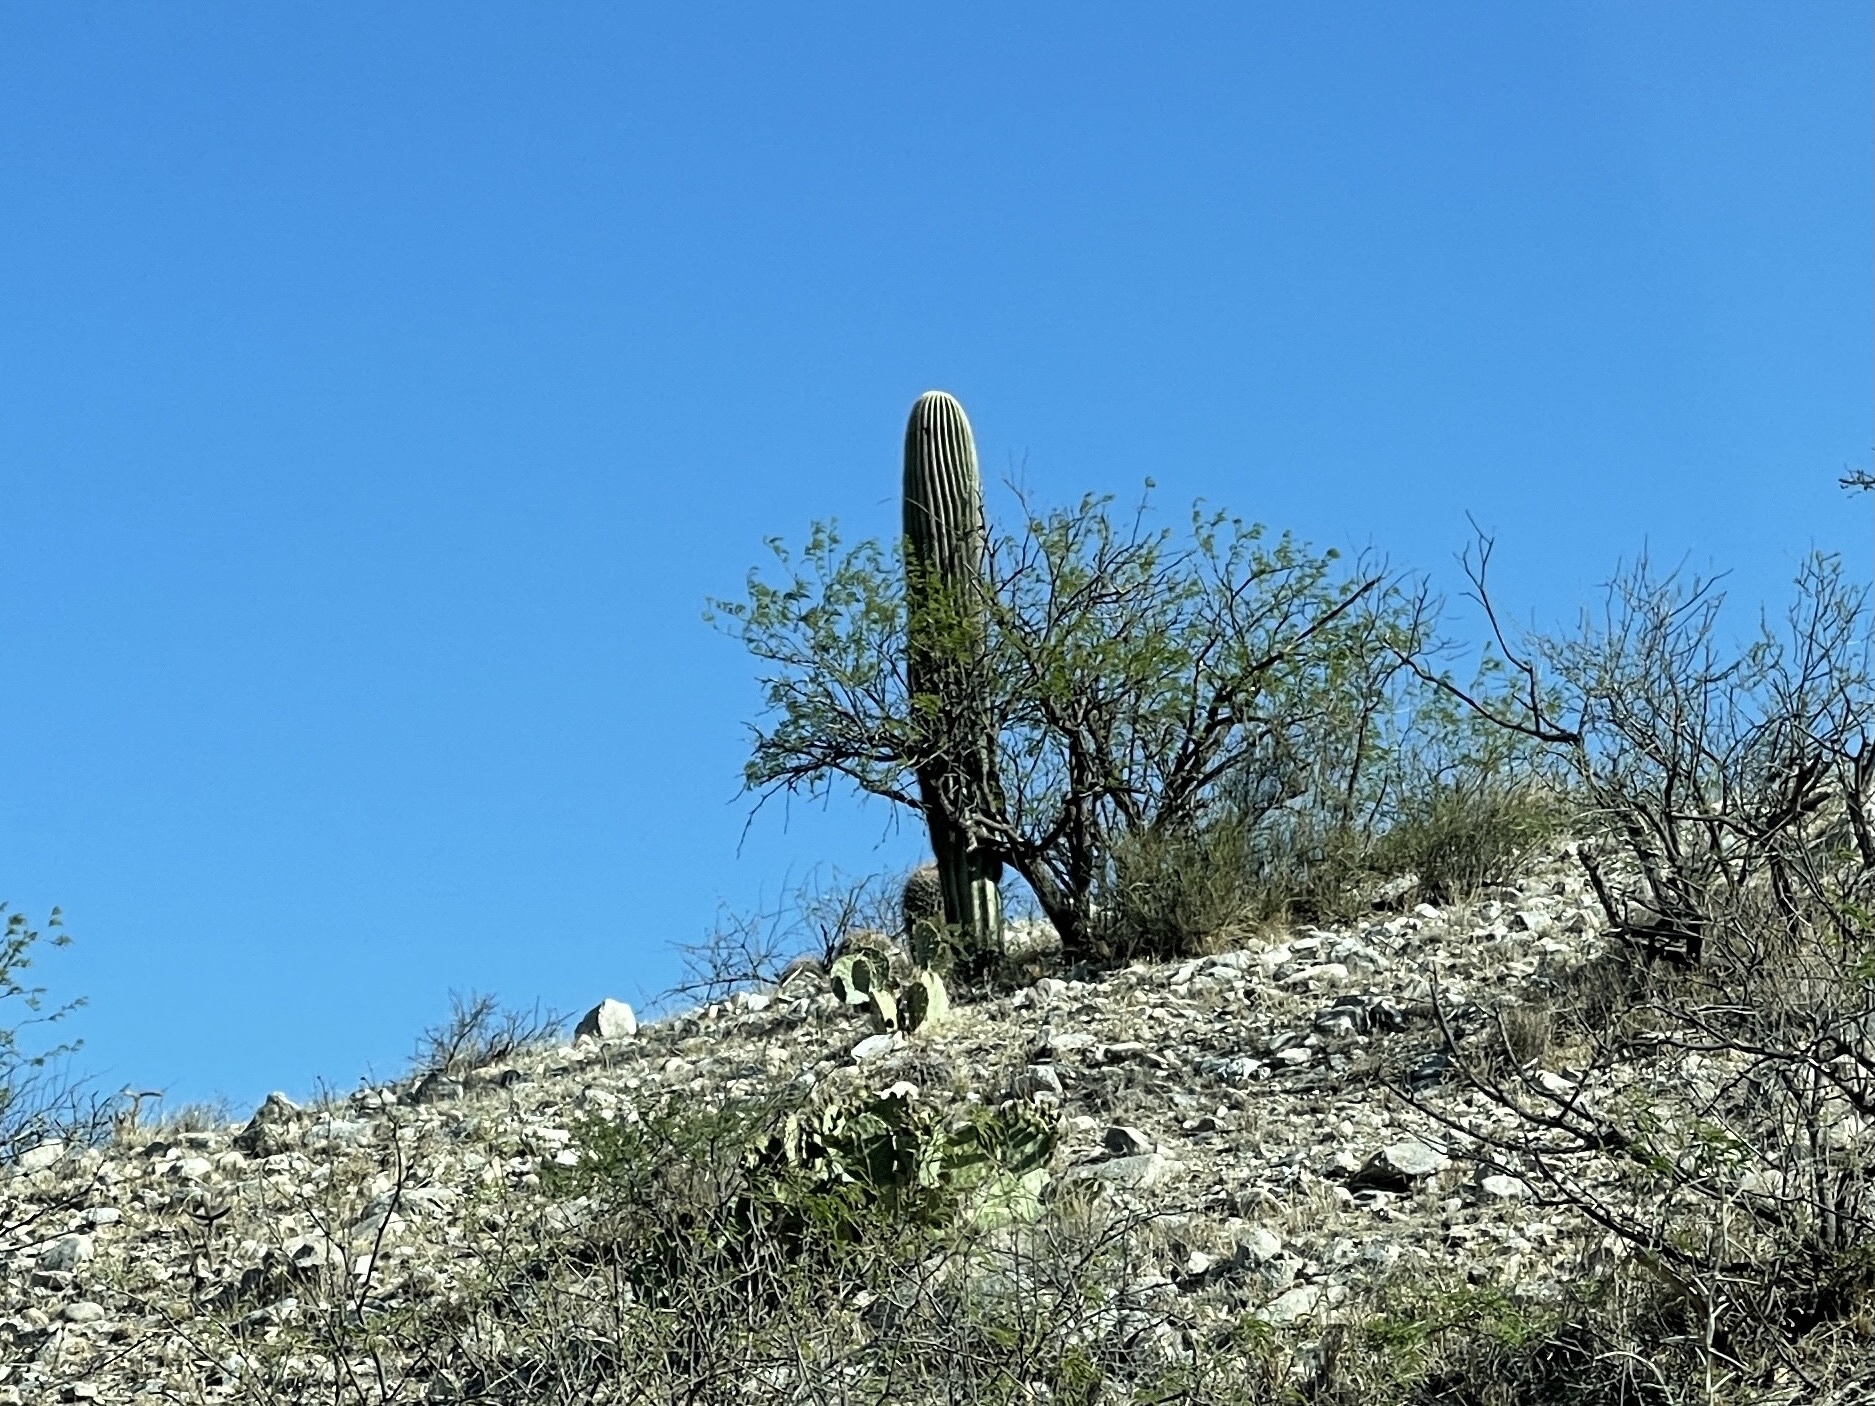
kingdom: Plantae
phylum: Tracheophyta
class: Magnoliopsida
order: Caryophyllales
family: Cactaceae
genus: Carnegiea
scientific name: Carnegiea gigantea
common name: Saguaro
